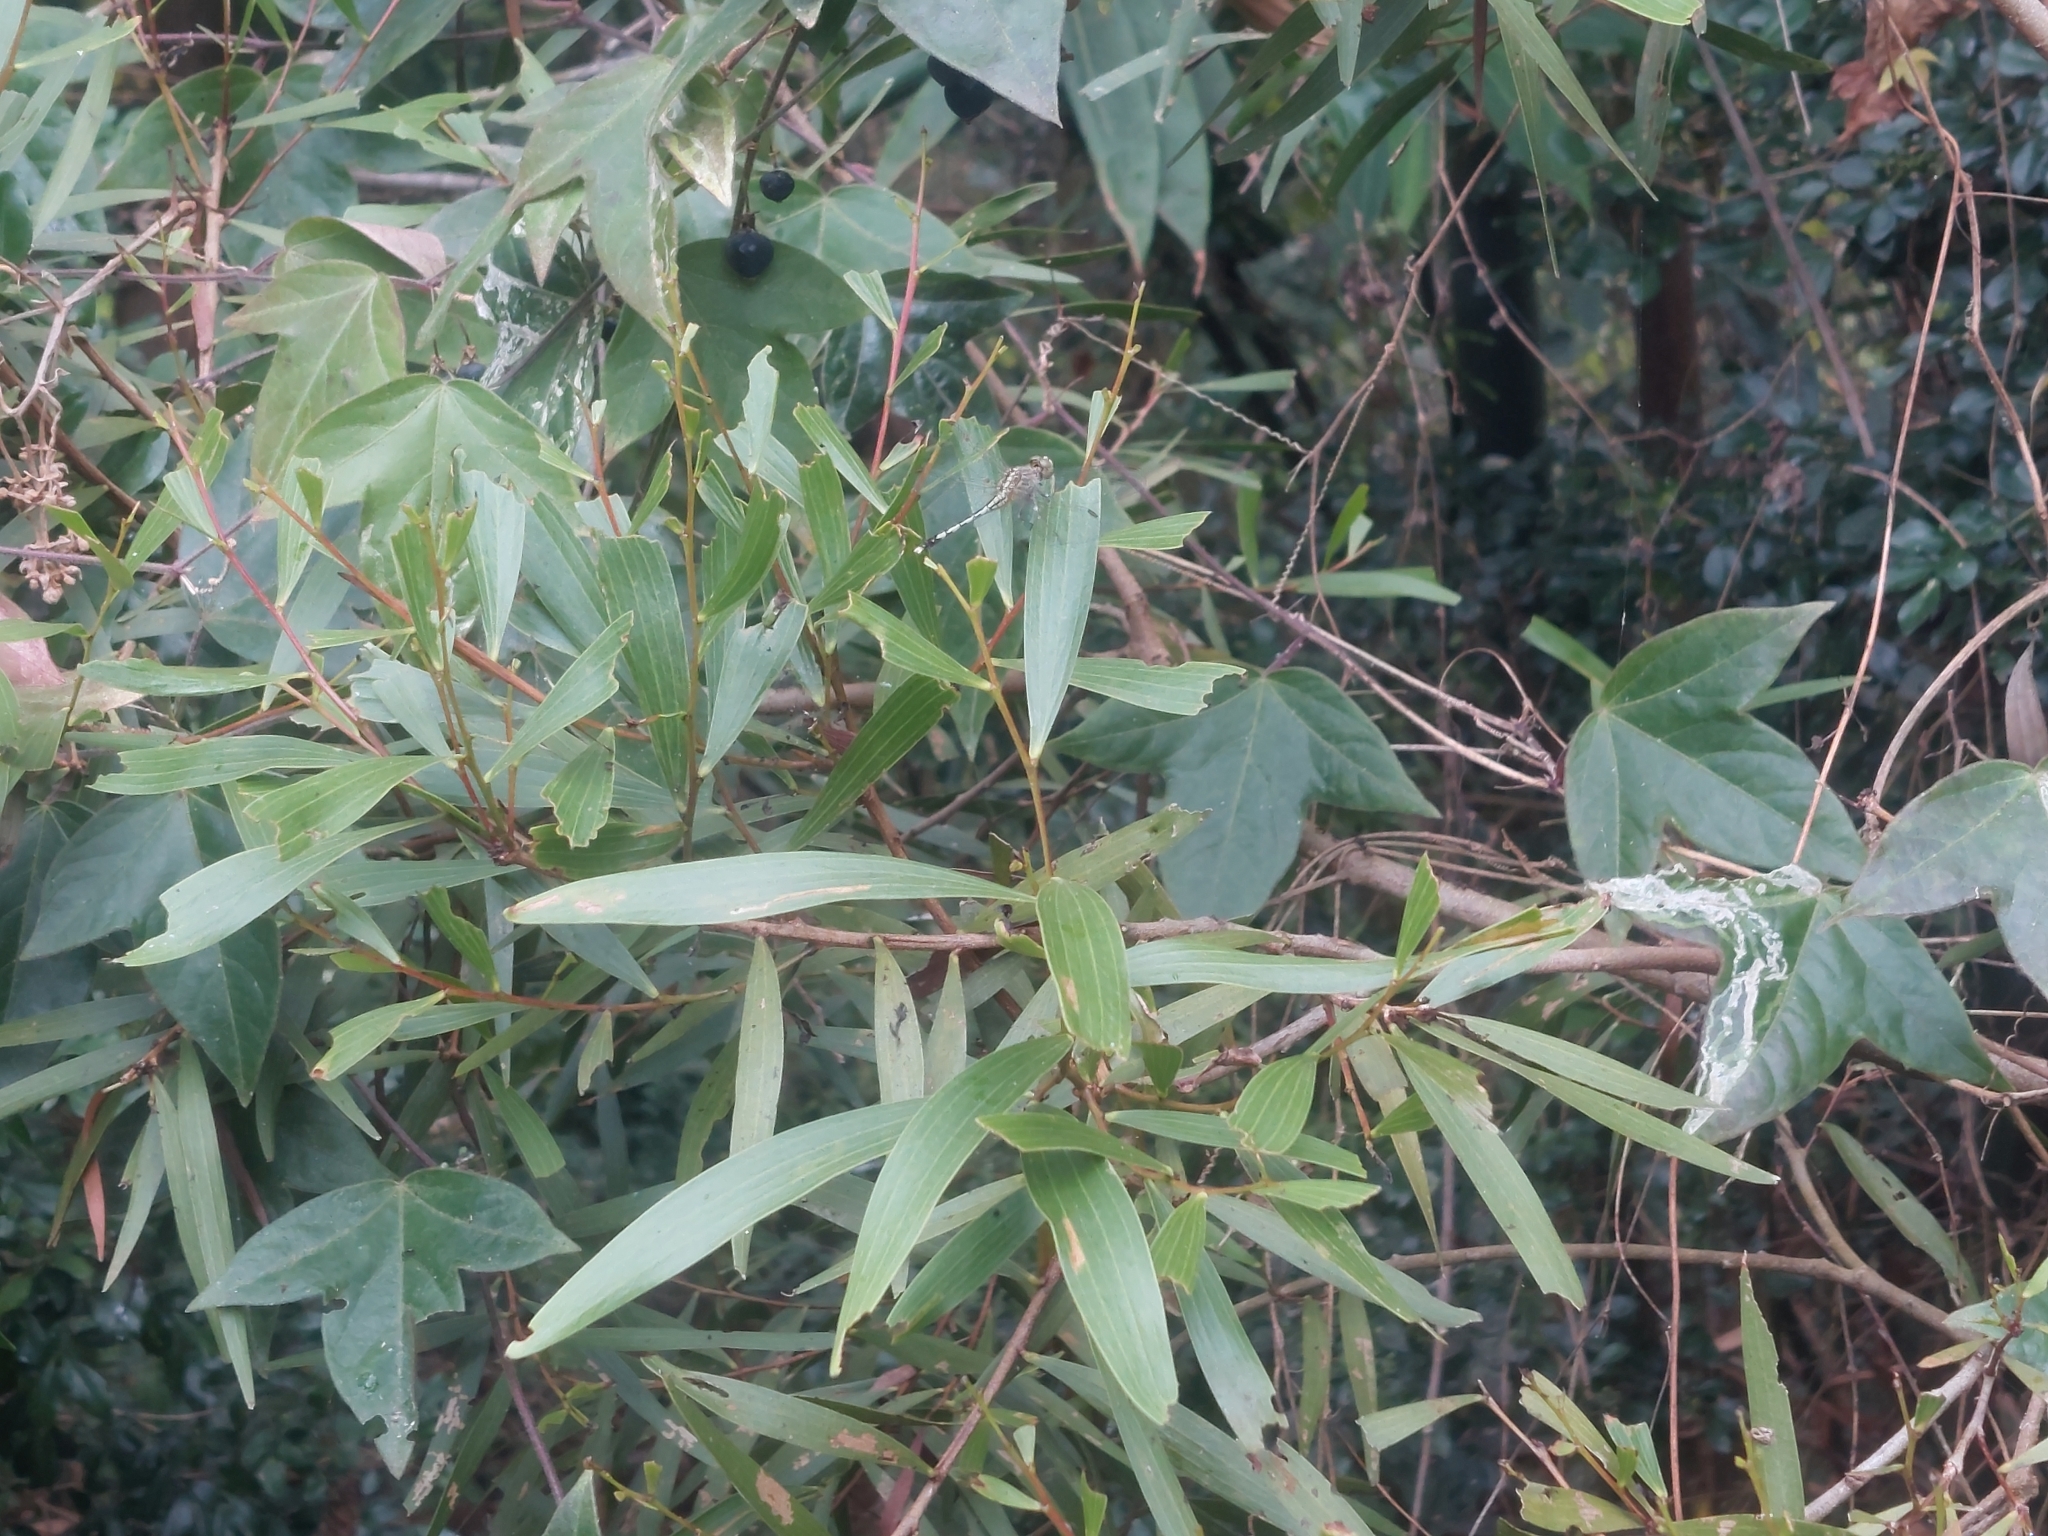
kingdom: Animalia
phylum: Arthropoda
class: Insecta
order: Odonata
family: Libellulidae
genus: Diplacodes
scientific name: Diplacodes trivialis
